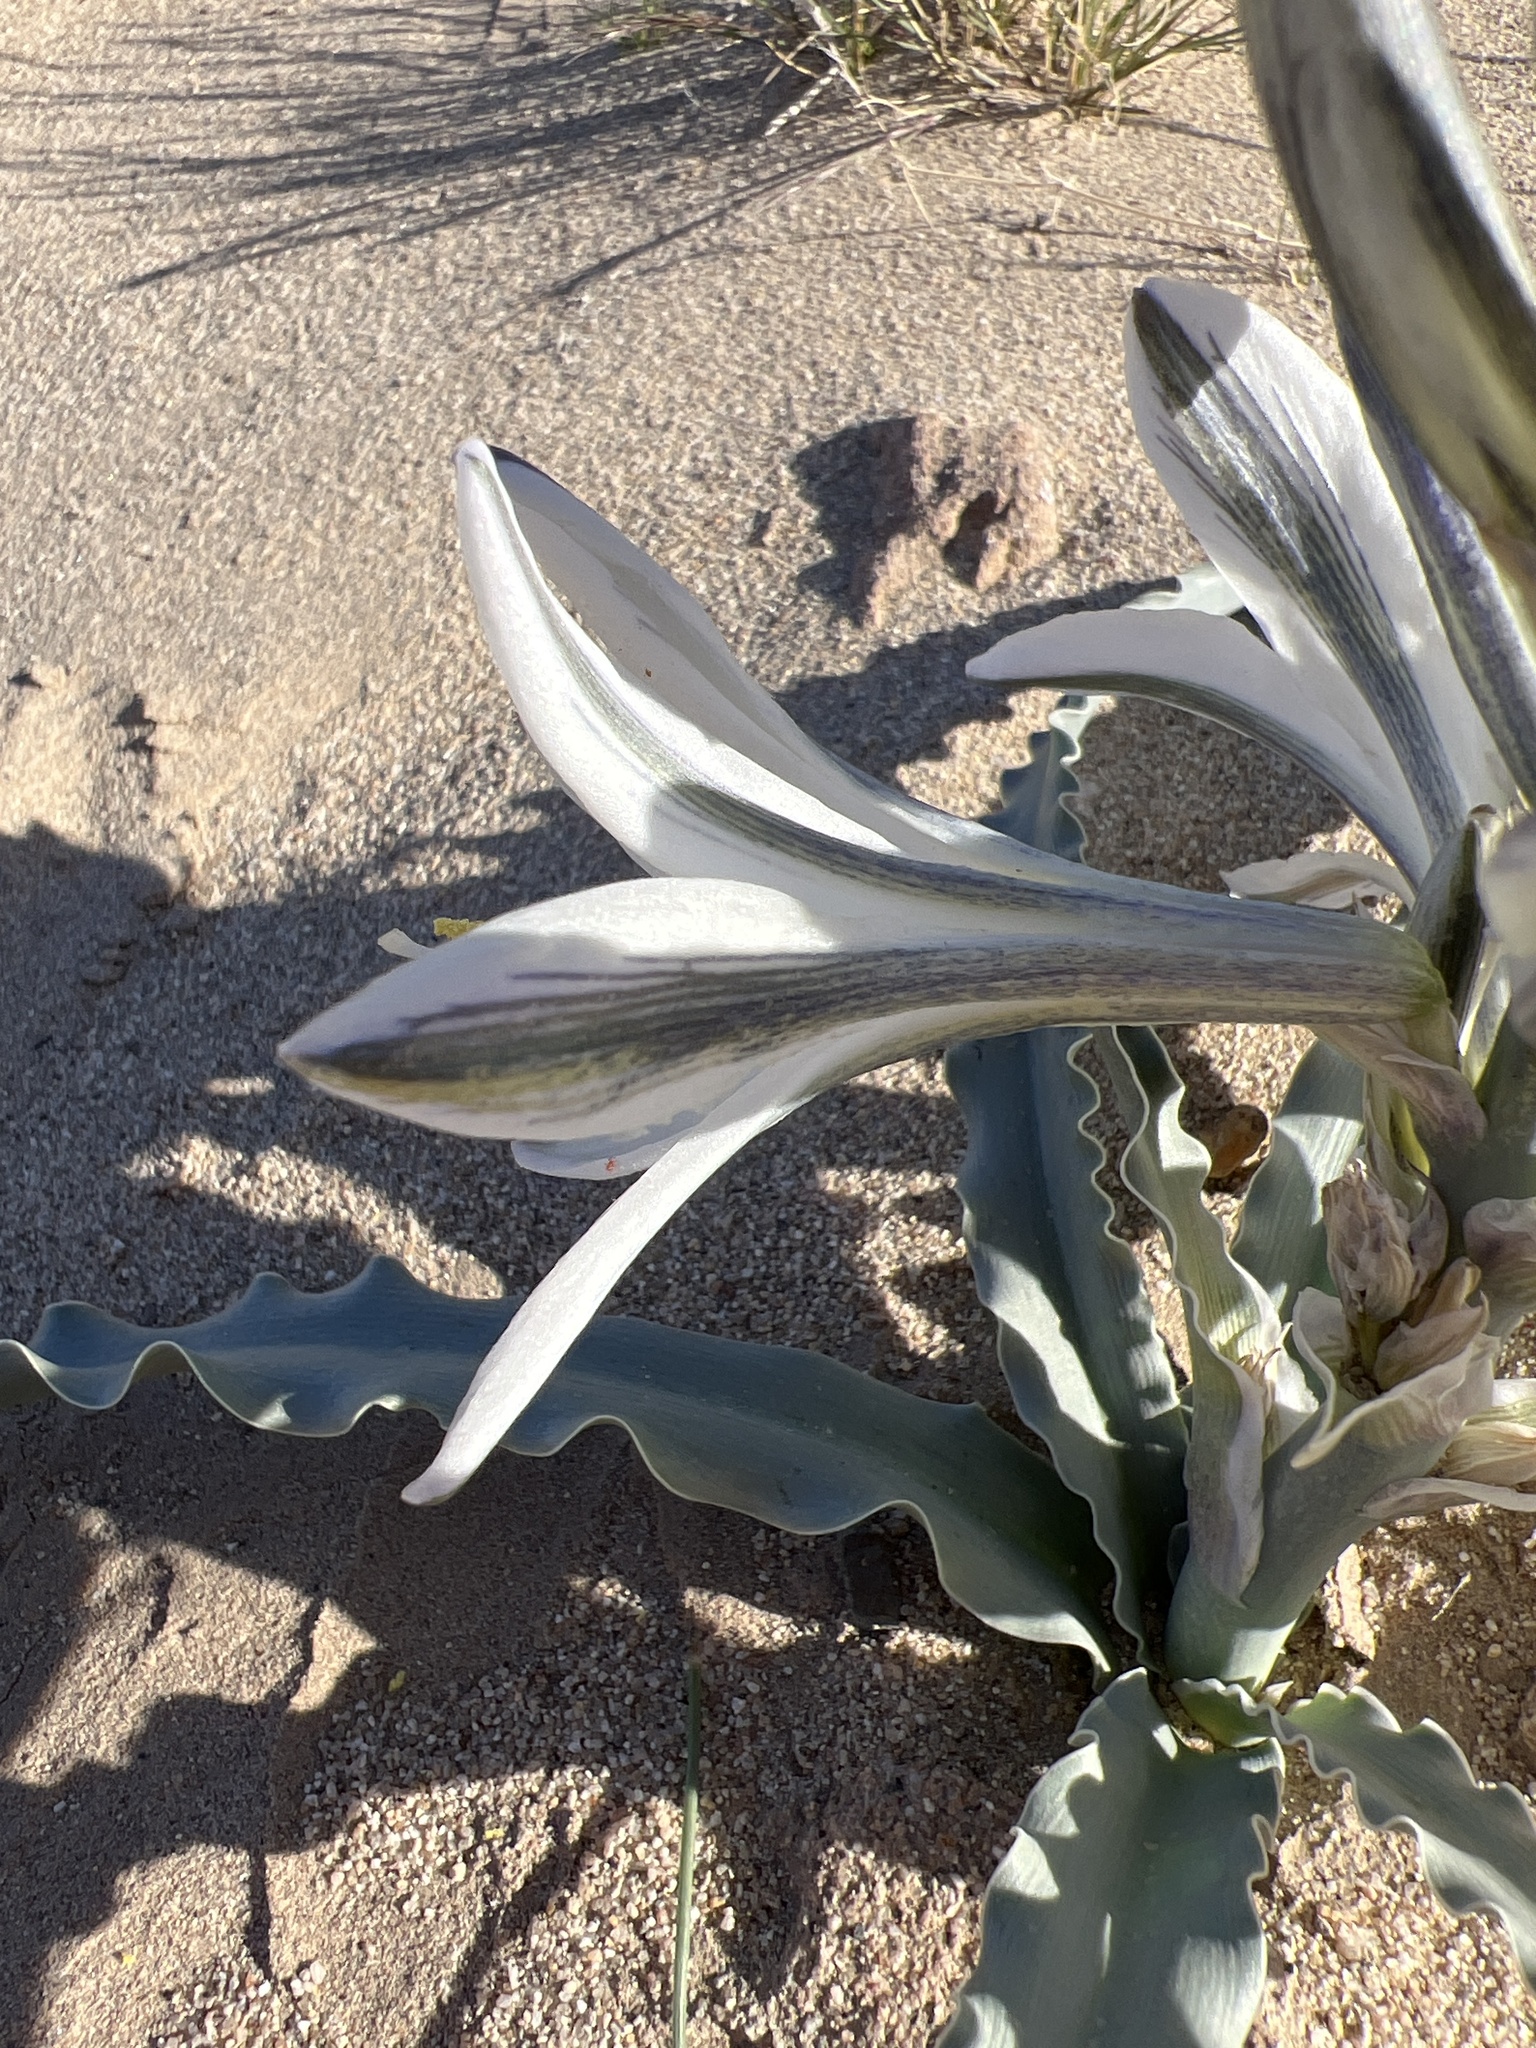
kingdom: Plantae
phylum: Tracheophyta
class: Liliopsida
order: Asparagales
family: Asparagaceae
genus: Hesperocallis
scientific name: Hesperocallis undulata
